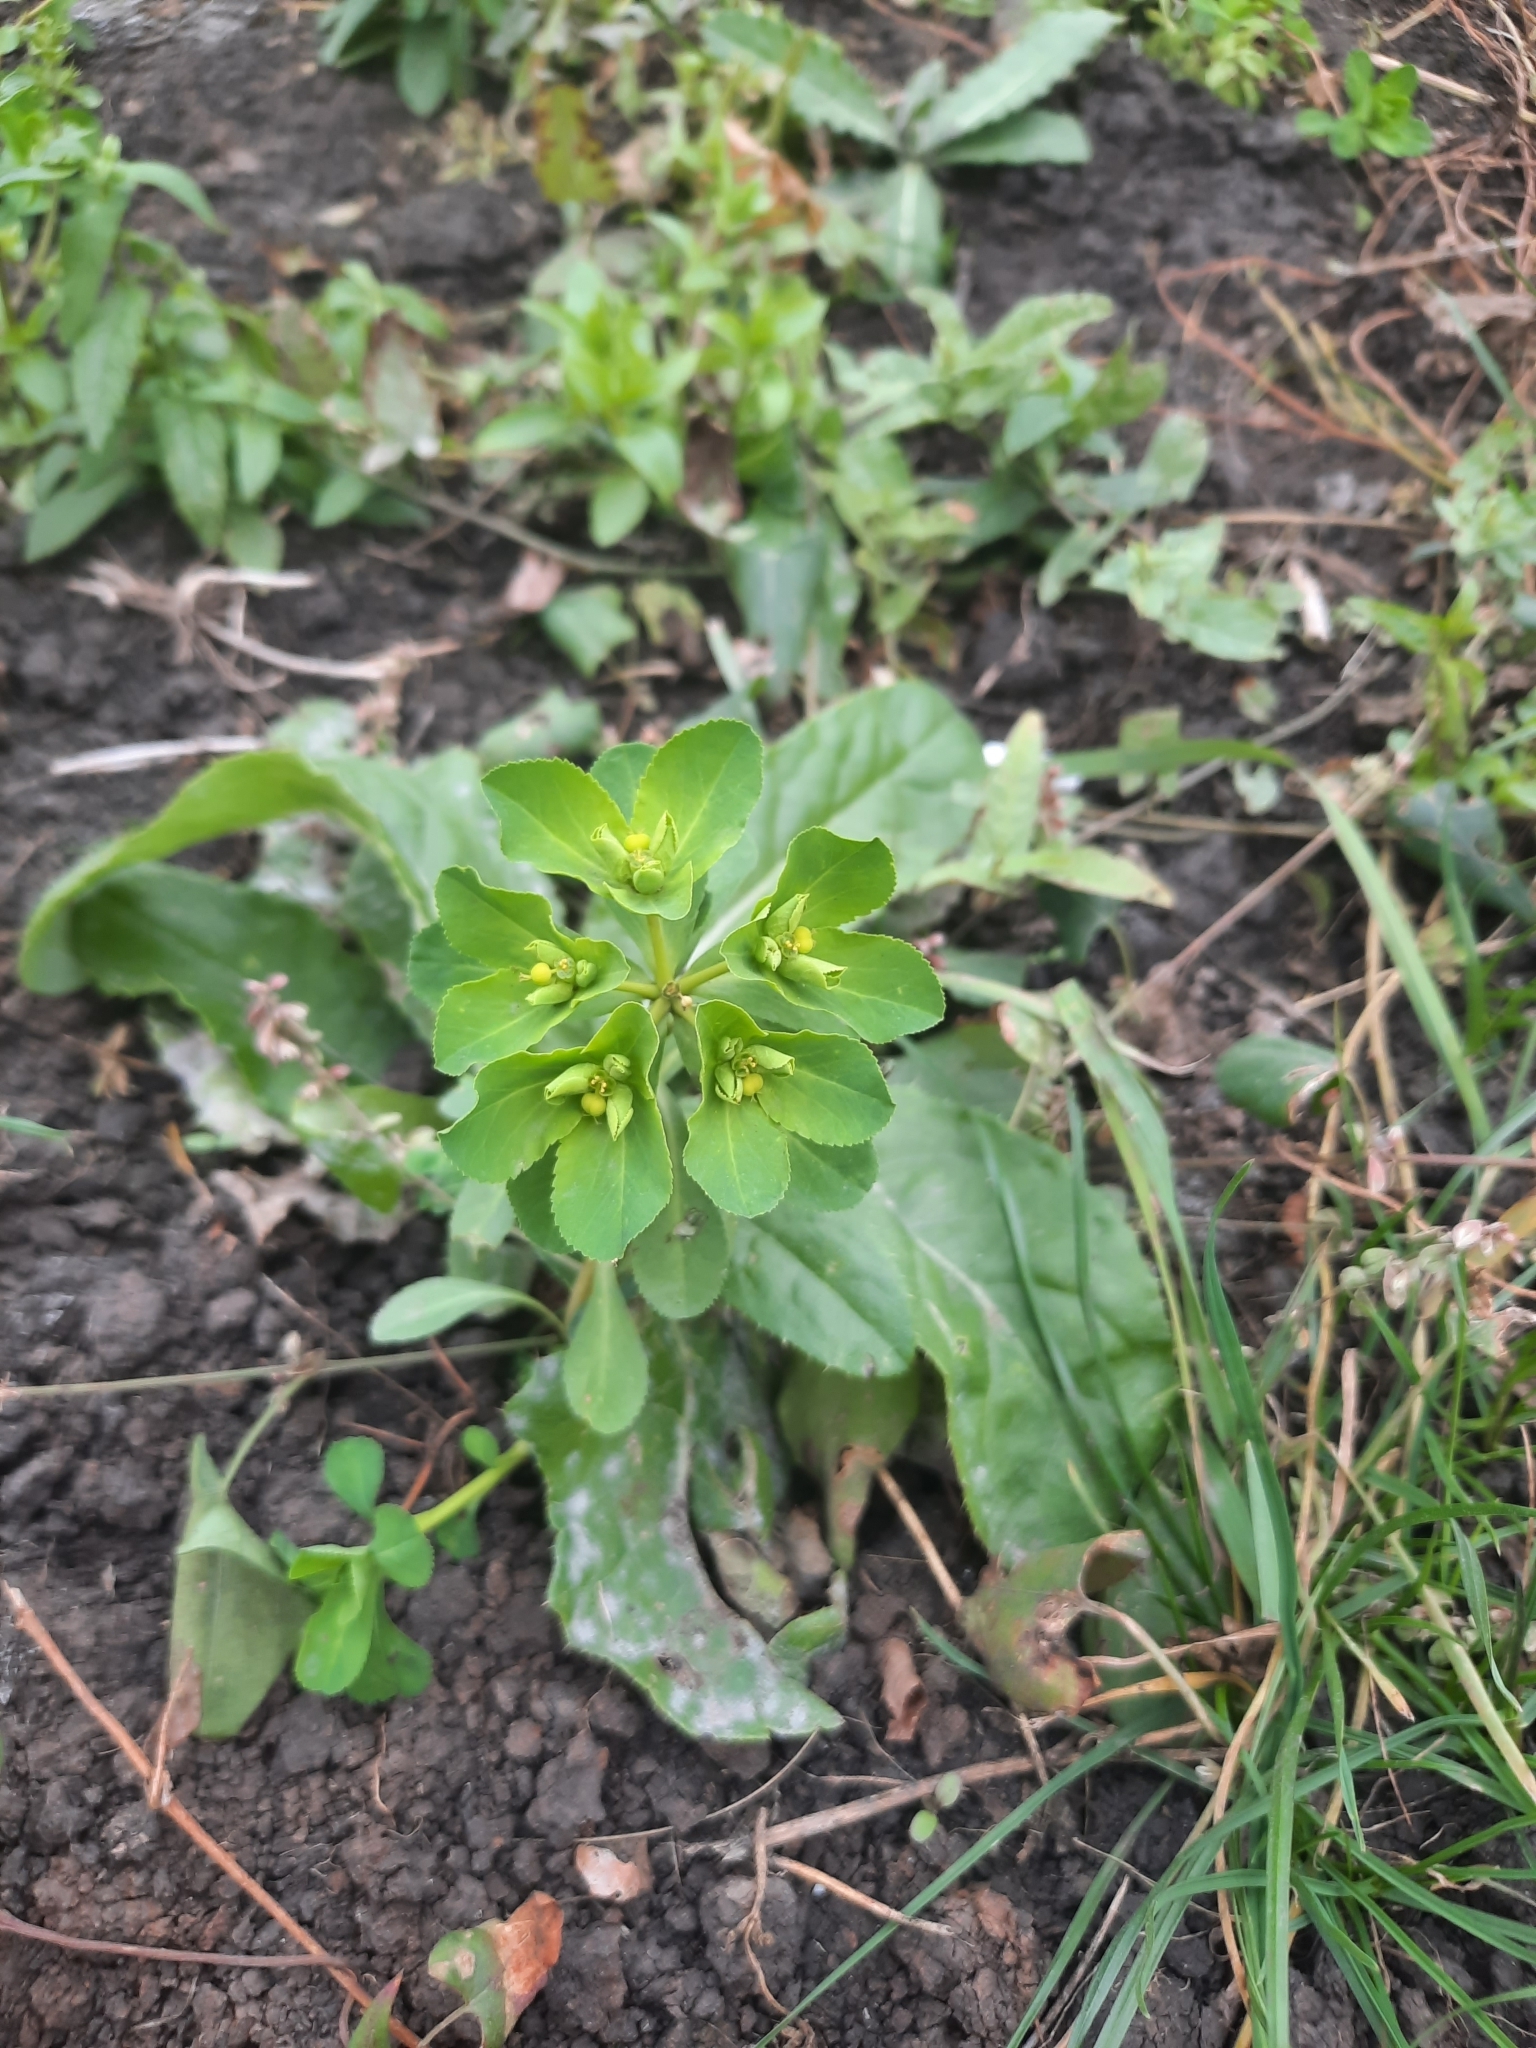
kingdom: Plantae
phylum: Tracheophyta
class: Magnoliopsida
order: Malpighiales
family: Euphorbiaceae
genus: Euphorbia
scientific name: Euphorbia helioscopia
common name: Sun spurge
